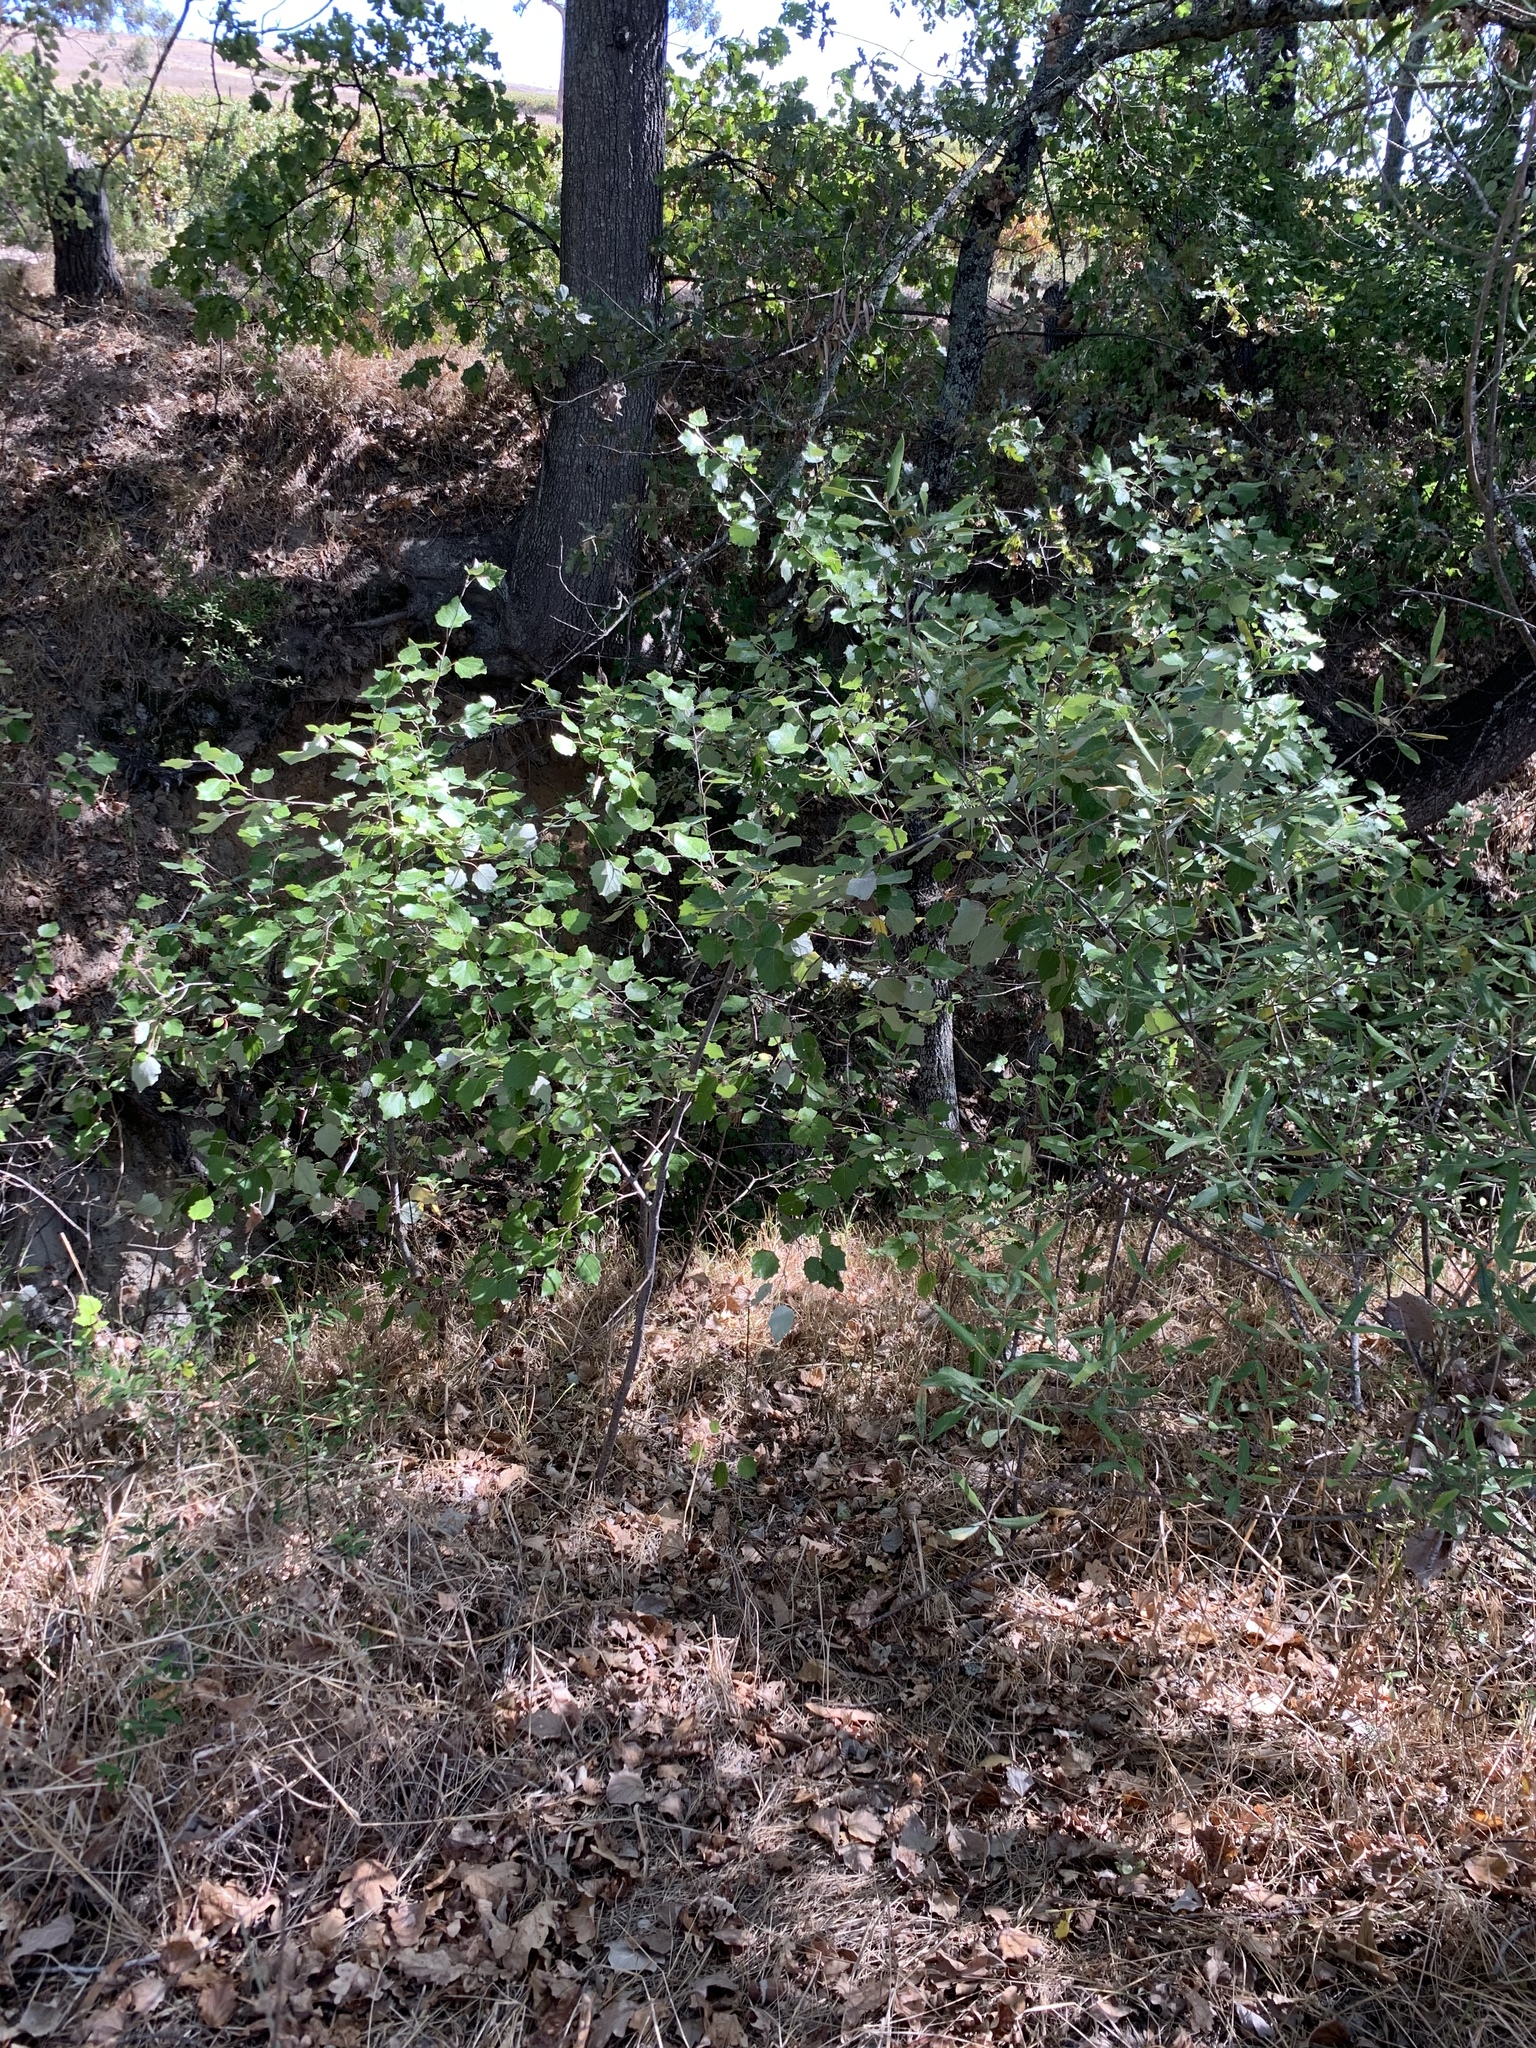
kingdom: Plantae
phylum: Tracheophyta
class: Magnoliopsida
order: Malpighiales
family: Salicaceae
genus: Populus
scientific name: Populus canescens
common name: Gray poplar
